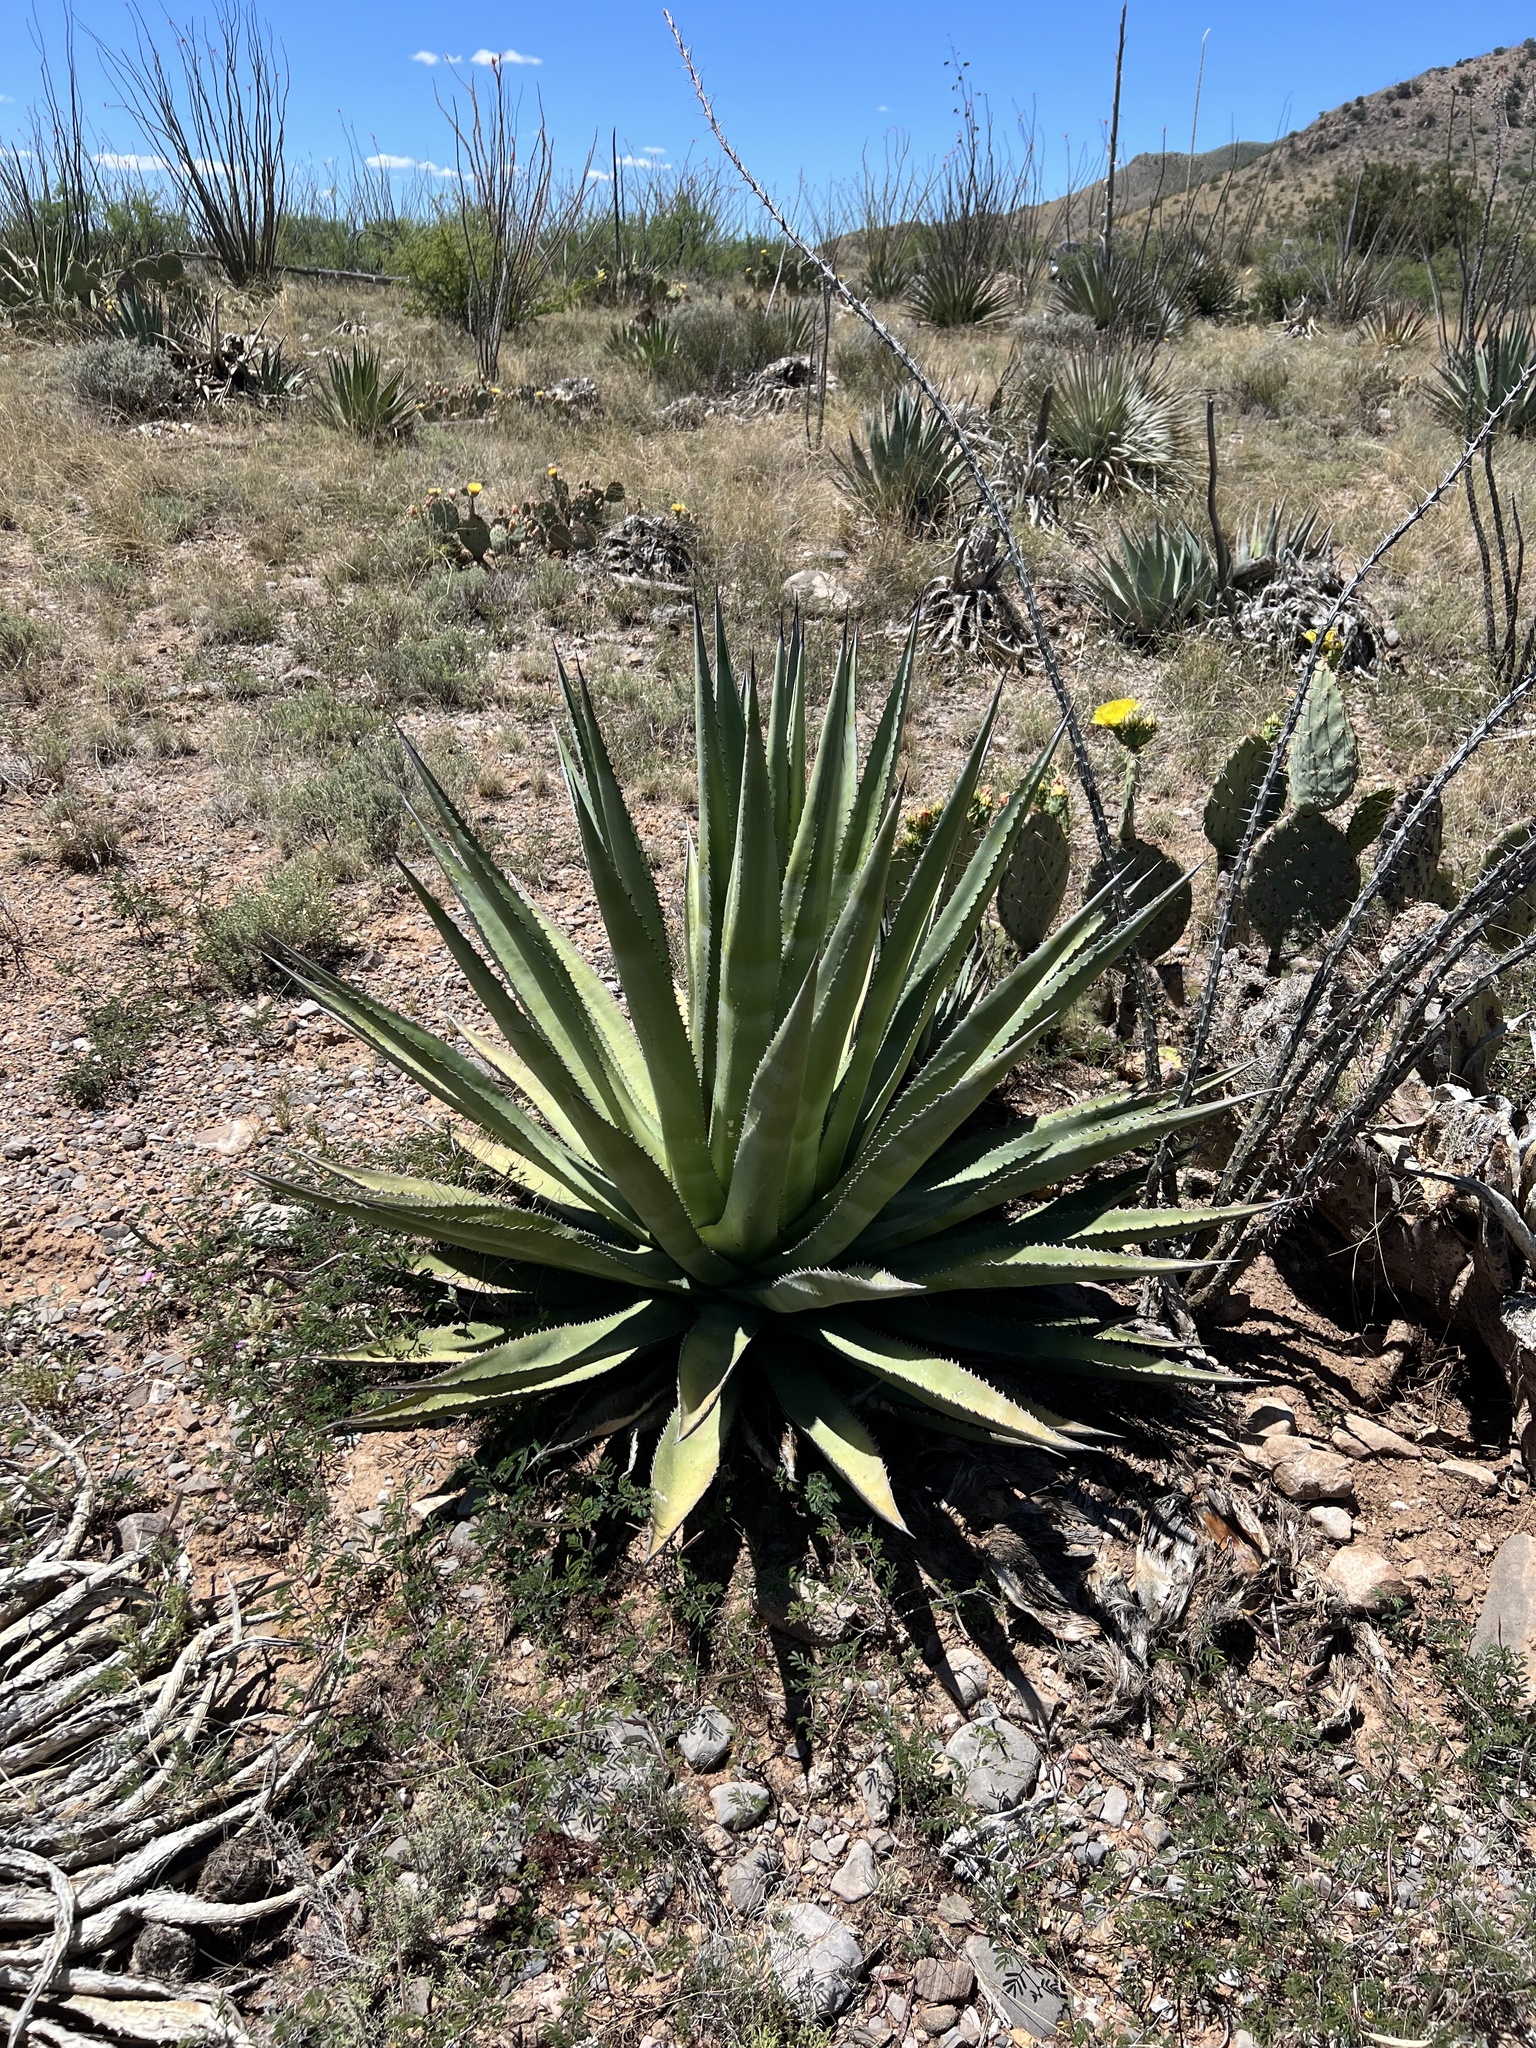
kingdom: Plantae
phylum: Tracheophyta
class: Liliopsida
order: Asparagales
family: Asparagaceae
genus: Agave
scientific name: Agave palmeri
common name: Palmer agave
